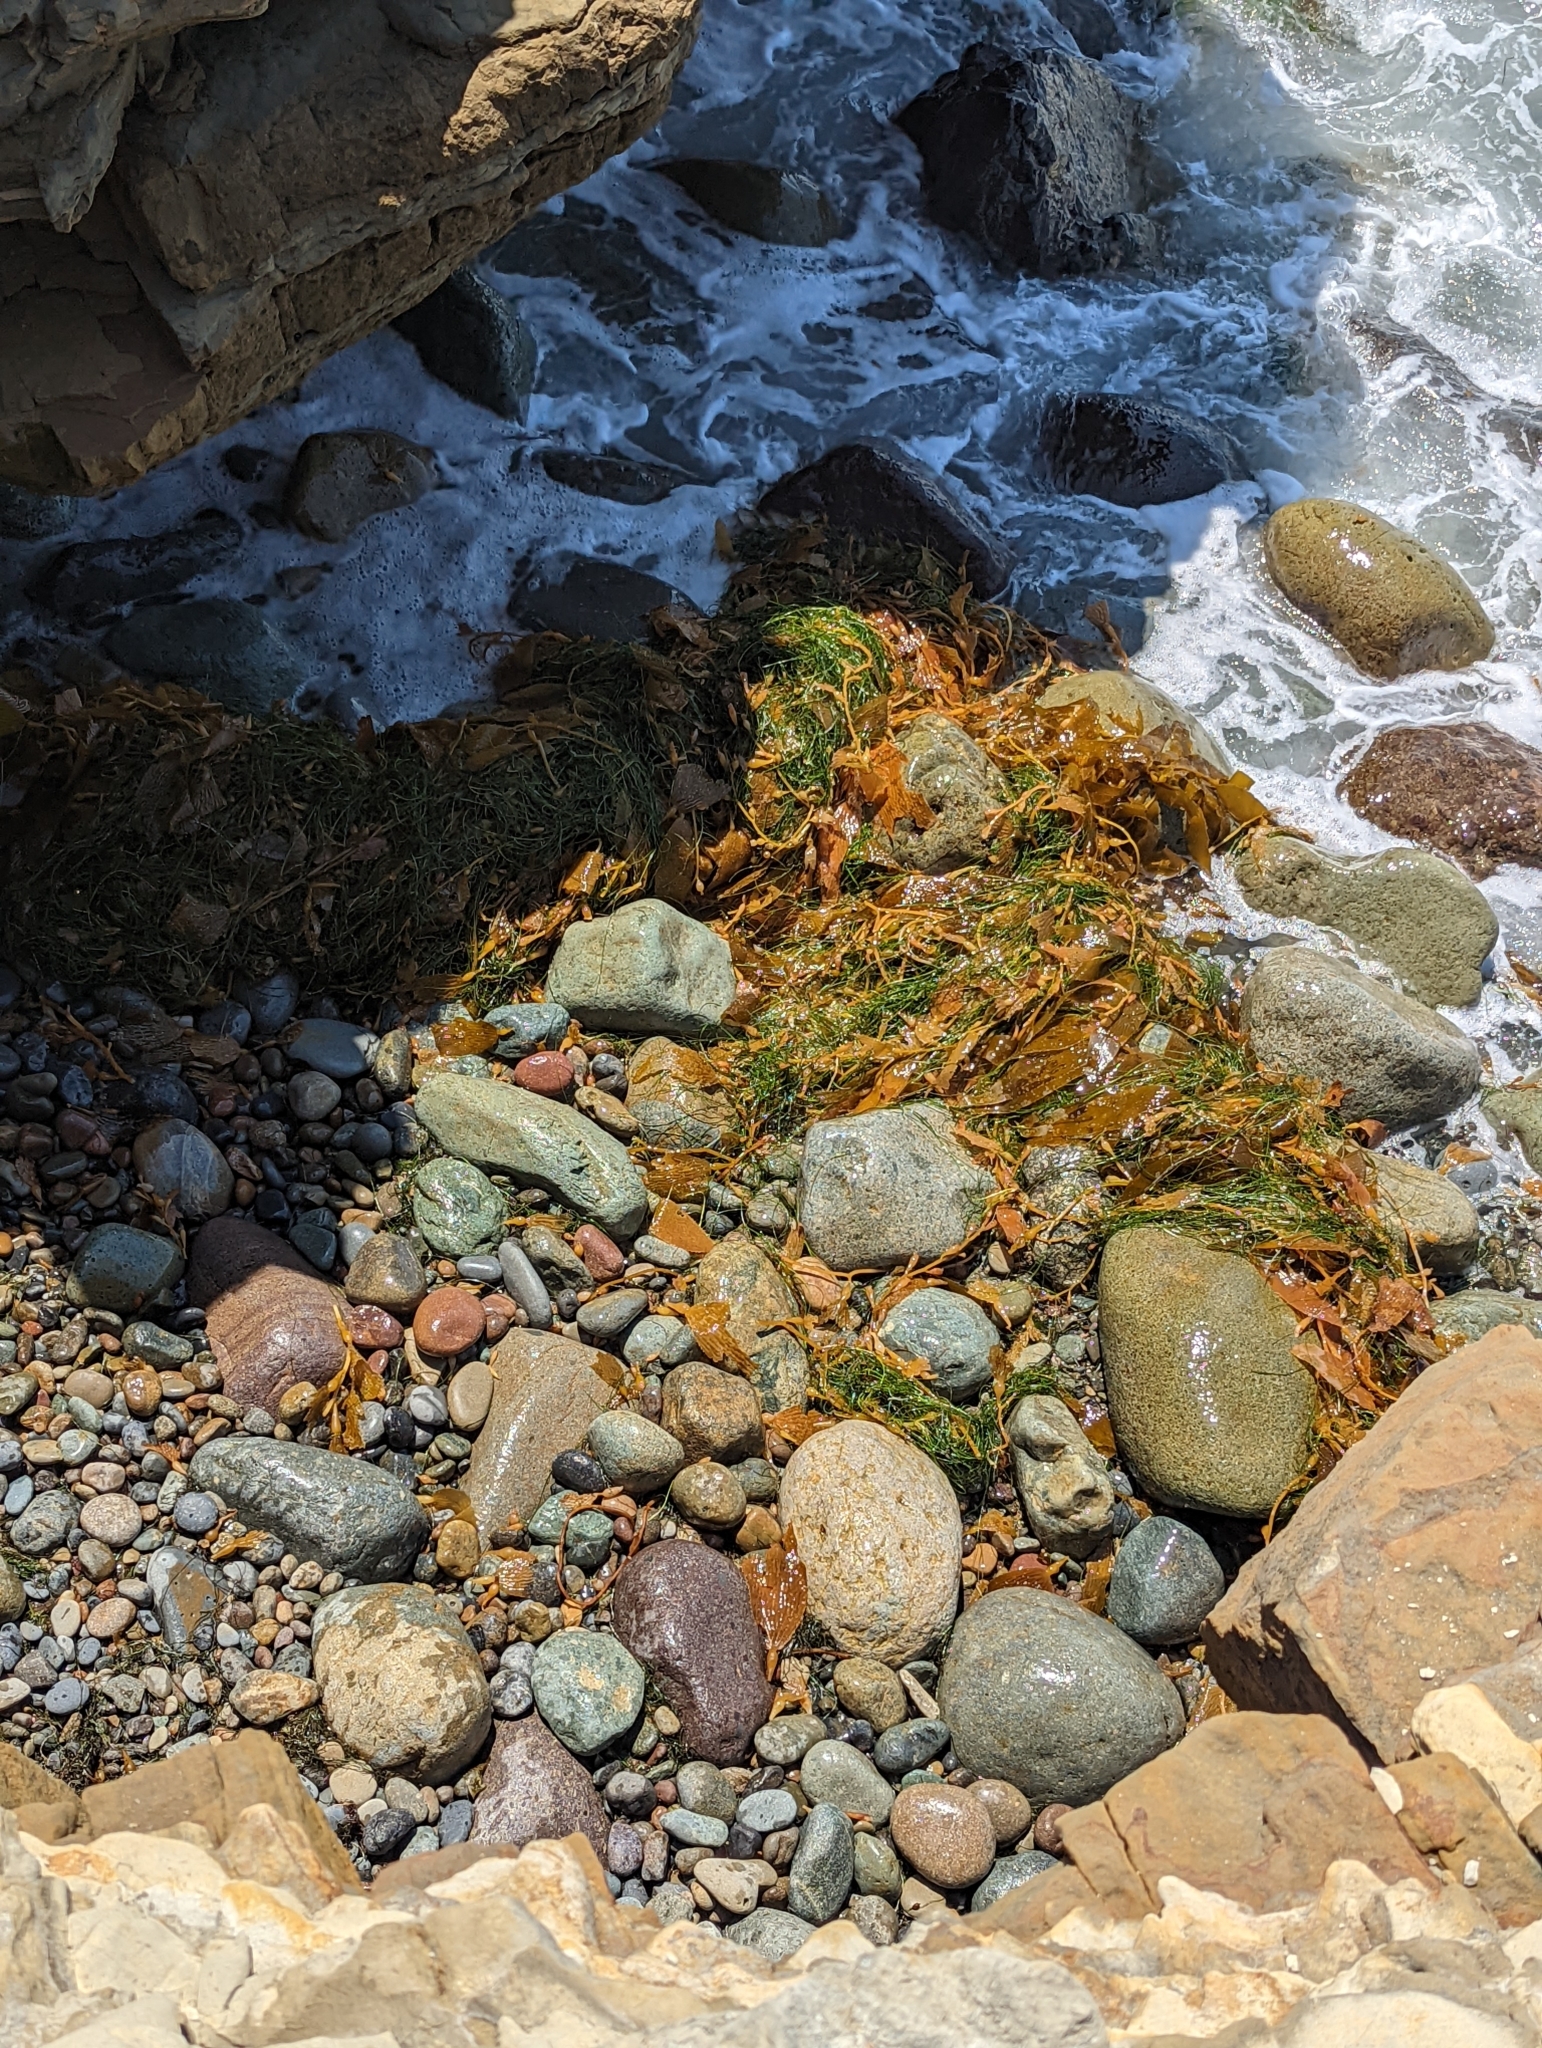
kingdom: Chromista
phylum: Ochrophyta
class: Phaeophyceae
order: Laminariales
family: Laminariaceae
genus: Macrocystis
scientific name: Macrocystis pyrifera
